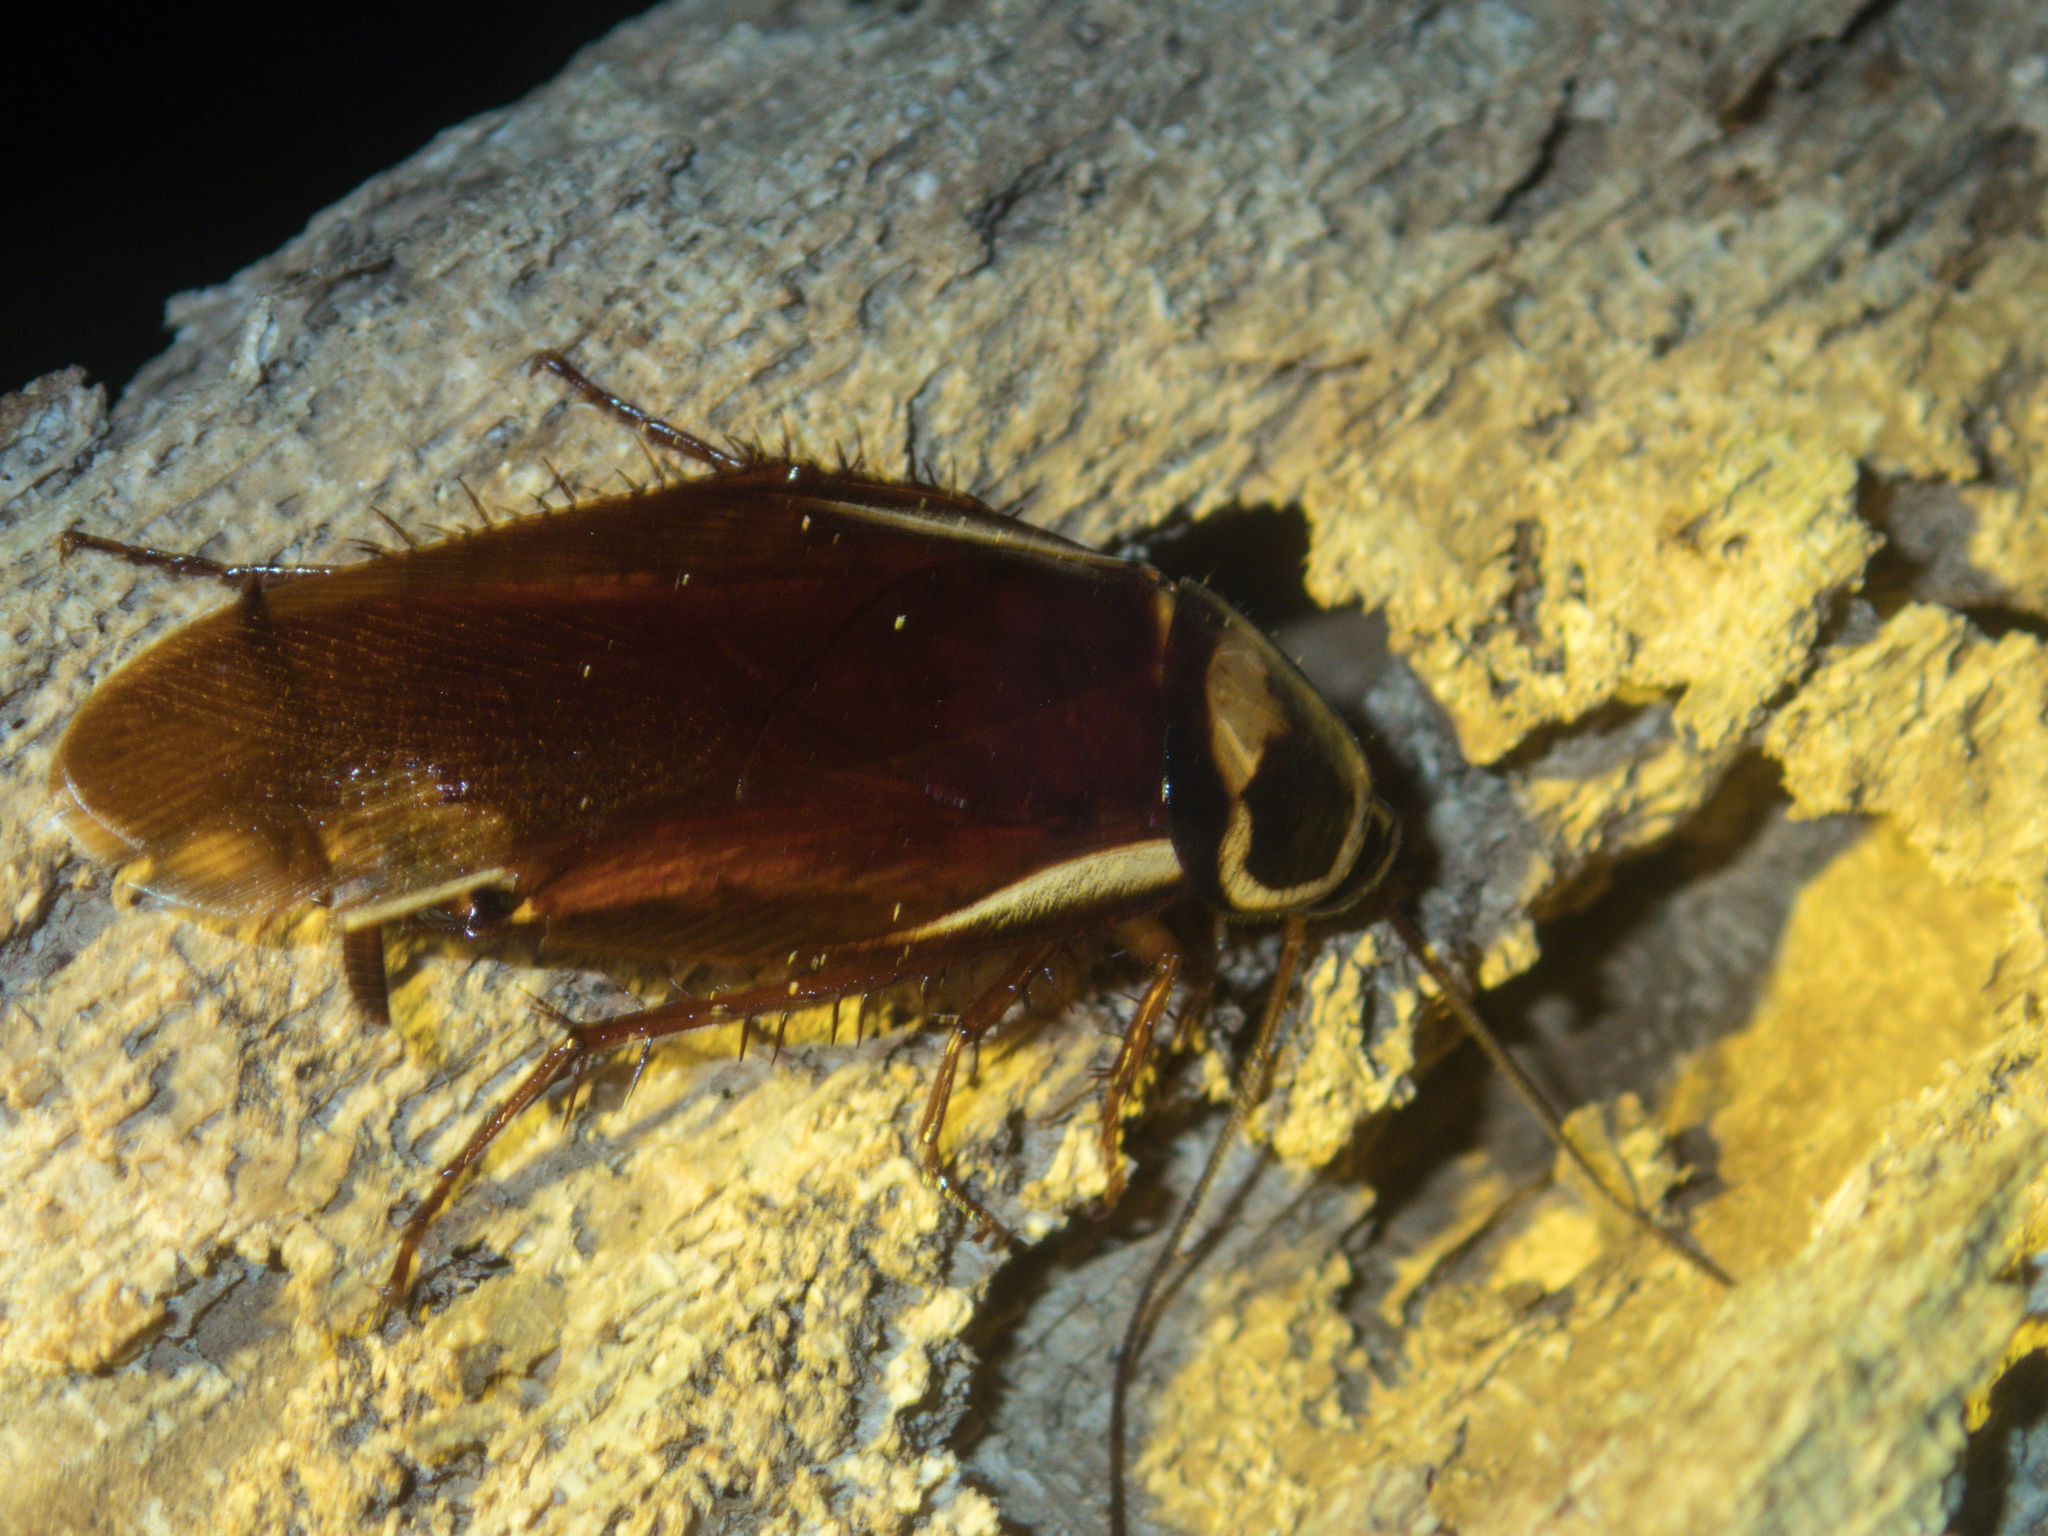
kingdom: Animalia
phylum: Arthropoda
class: Insecta
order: Blattodea
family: Blattidae
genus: Periplaneta
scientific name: Periplaneta australasiae
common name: Australian cockroach
